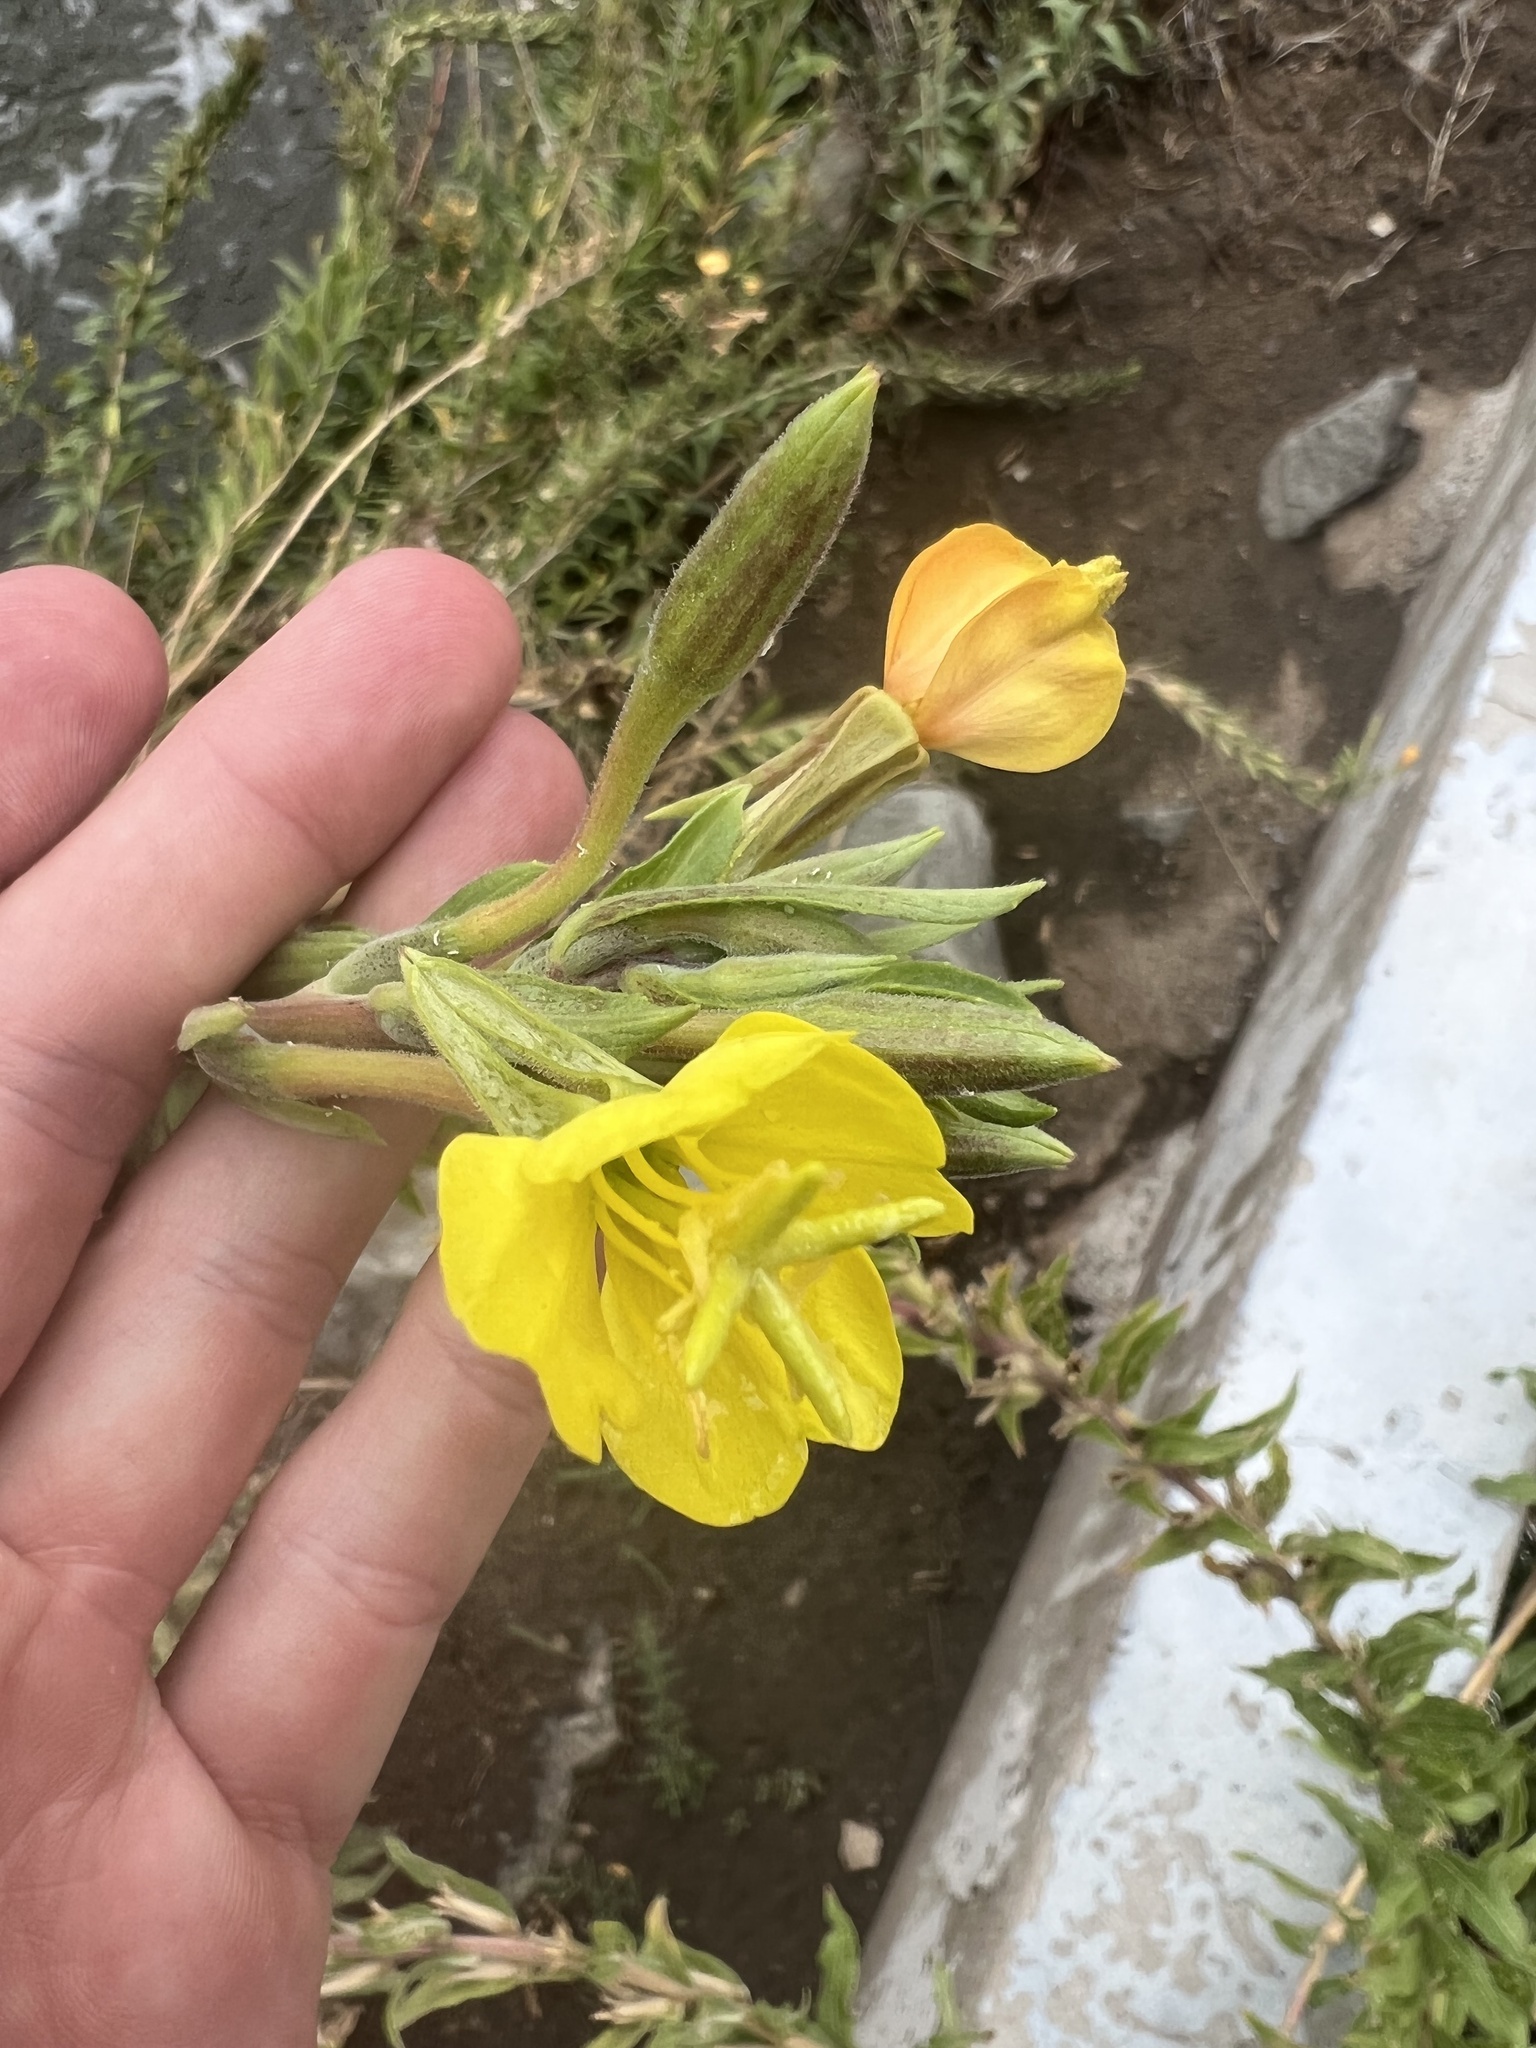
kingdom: Plantae
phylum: Tracheophyta
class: Magnoliopsida
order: Myrtales
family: Onagraceae
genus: Oenothera
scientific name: Oenothera villosa
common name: Hairy evening-primrose
